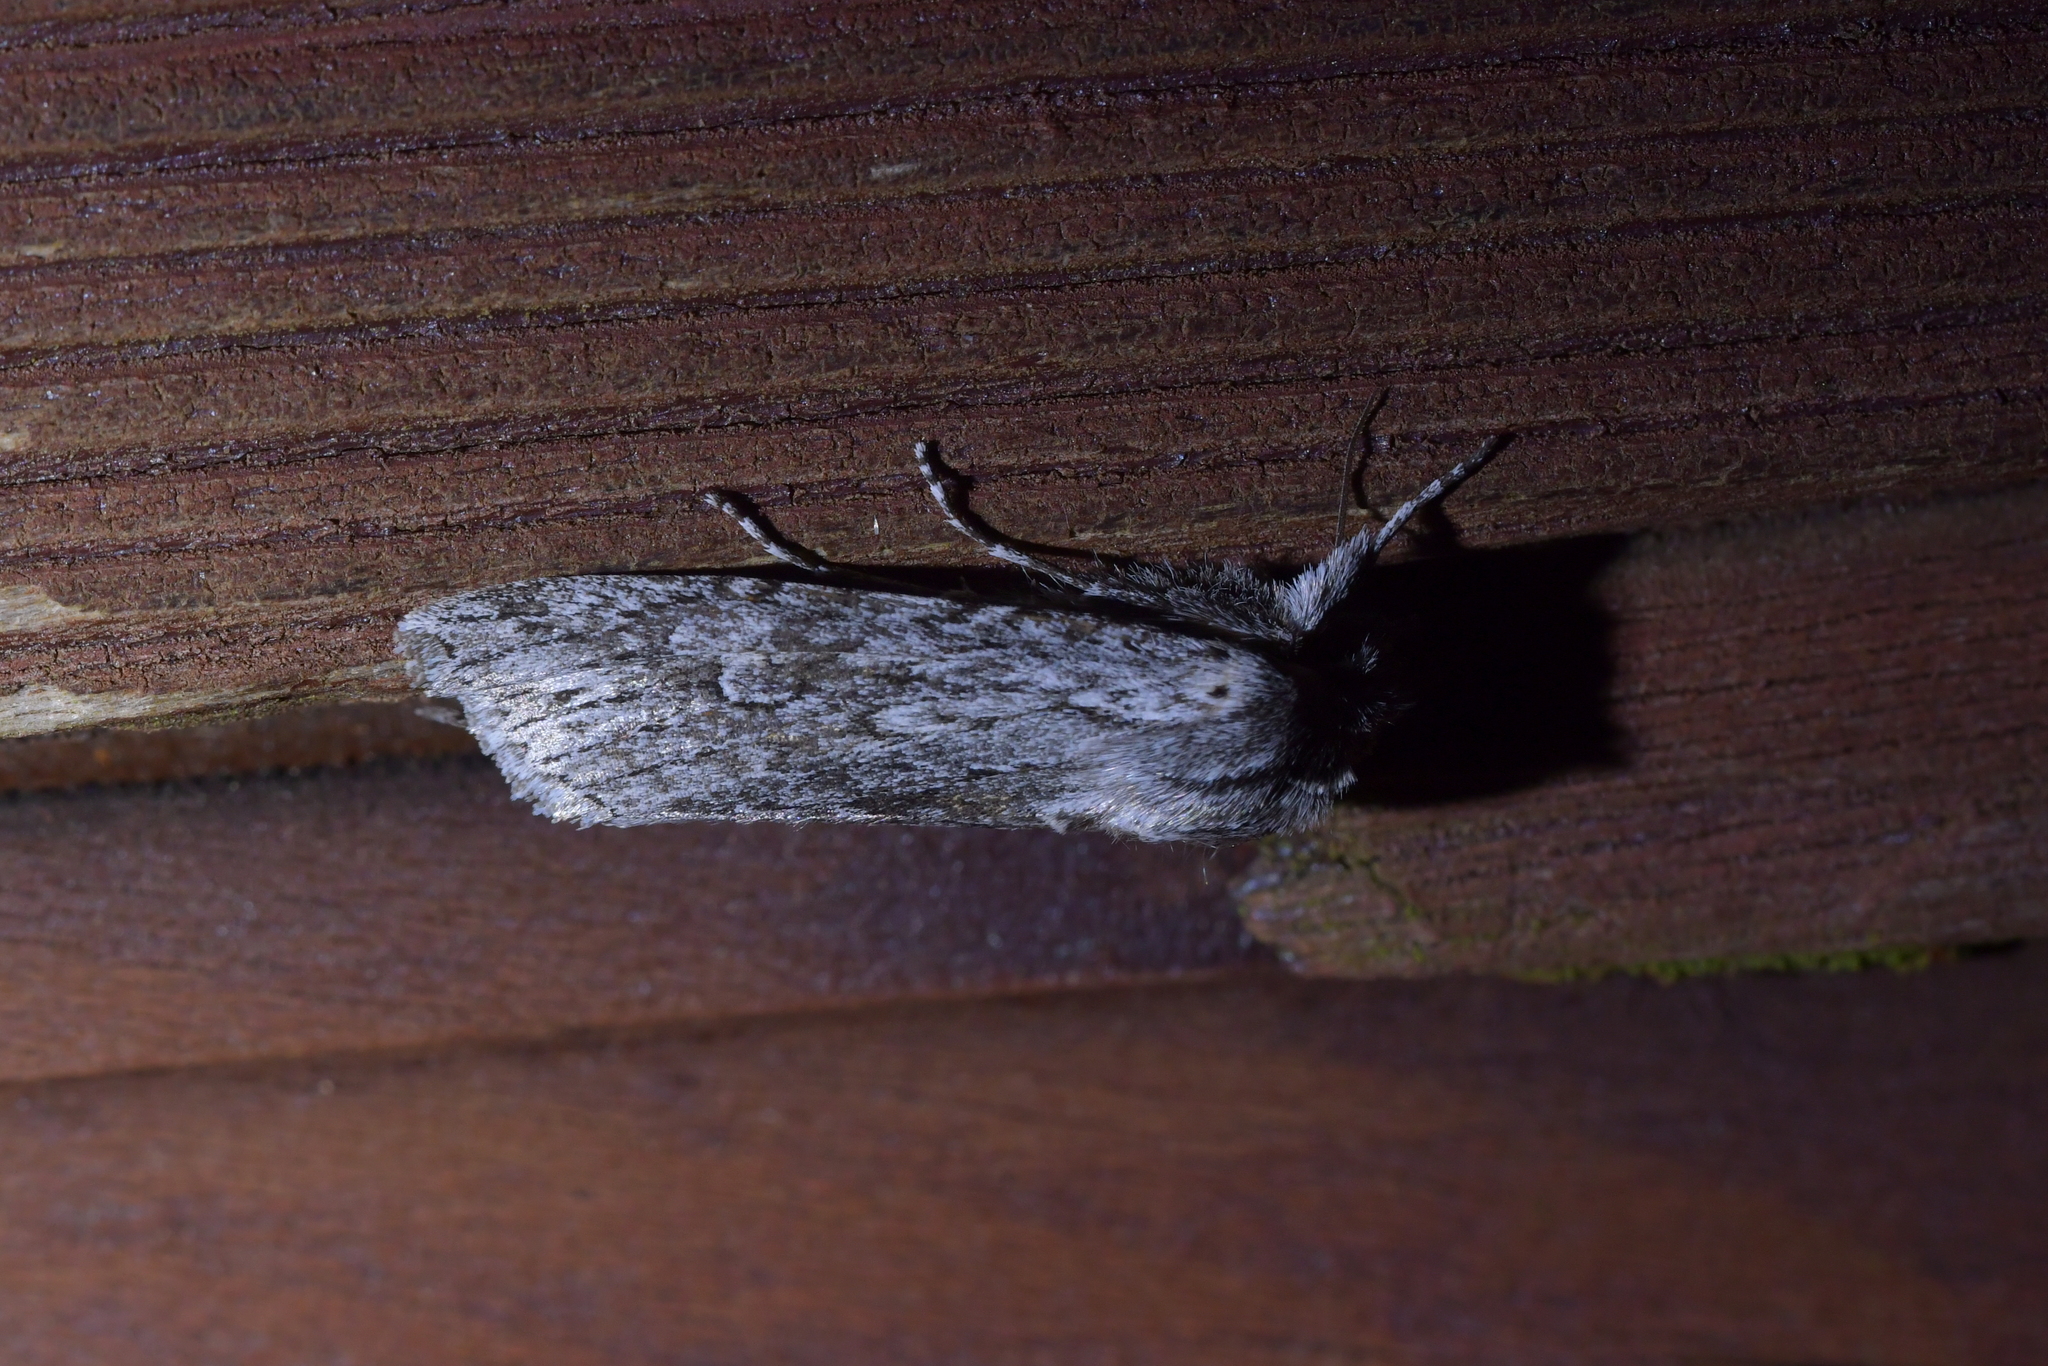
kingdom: Animalia
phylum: Arthropoda
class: Insecta
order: Lepidoptera
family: Noctuidae
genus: Physetica
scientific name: Physetica sequens
